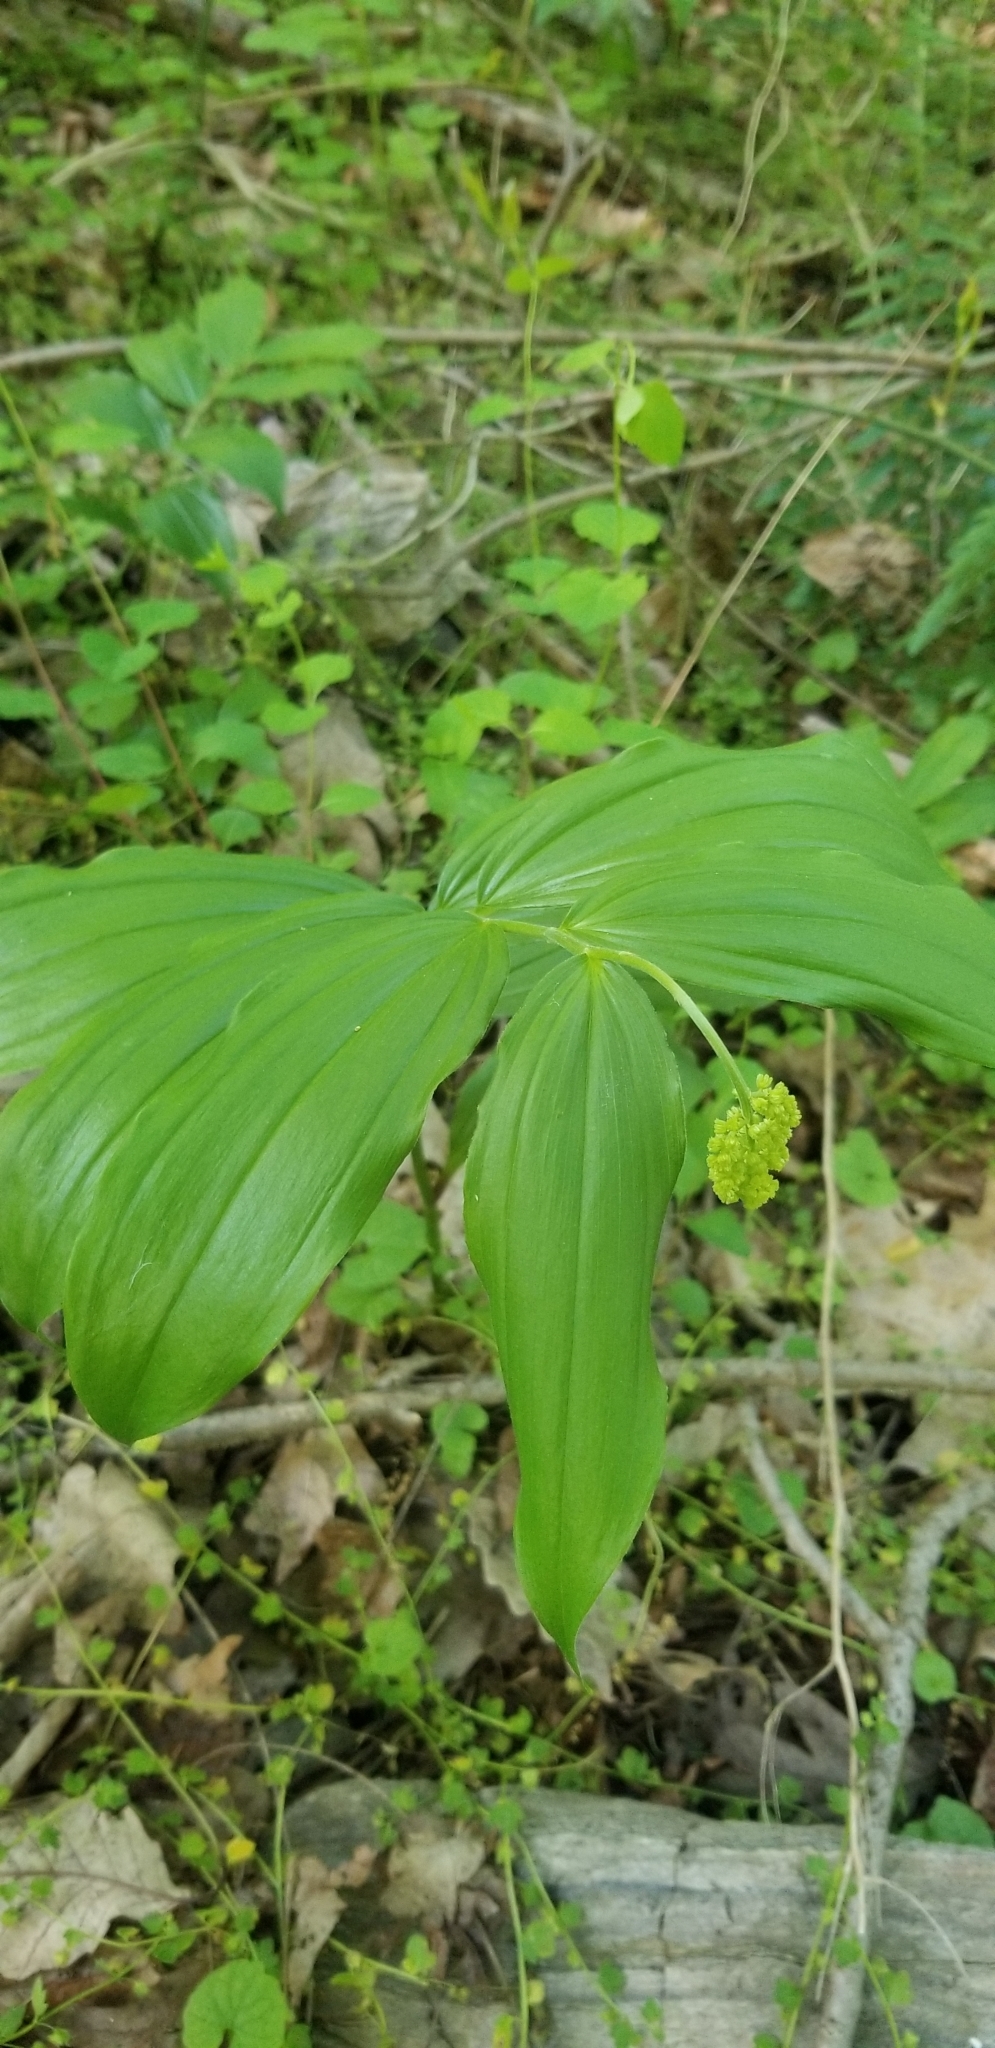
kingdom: Plantae
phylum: Tracheophyta
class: Liliopsida
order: Asparagales
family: Asparagaceae
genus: Maianthemum
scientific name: Maianthemum racemosum
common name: False spikenard
